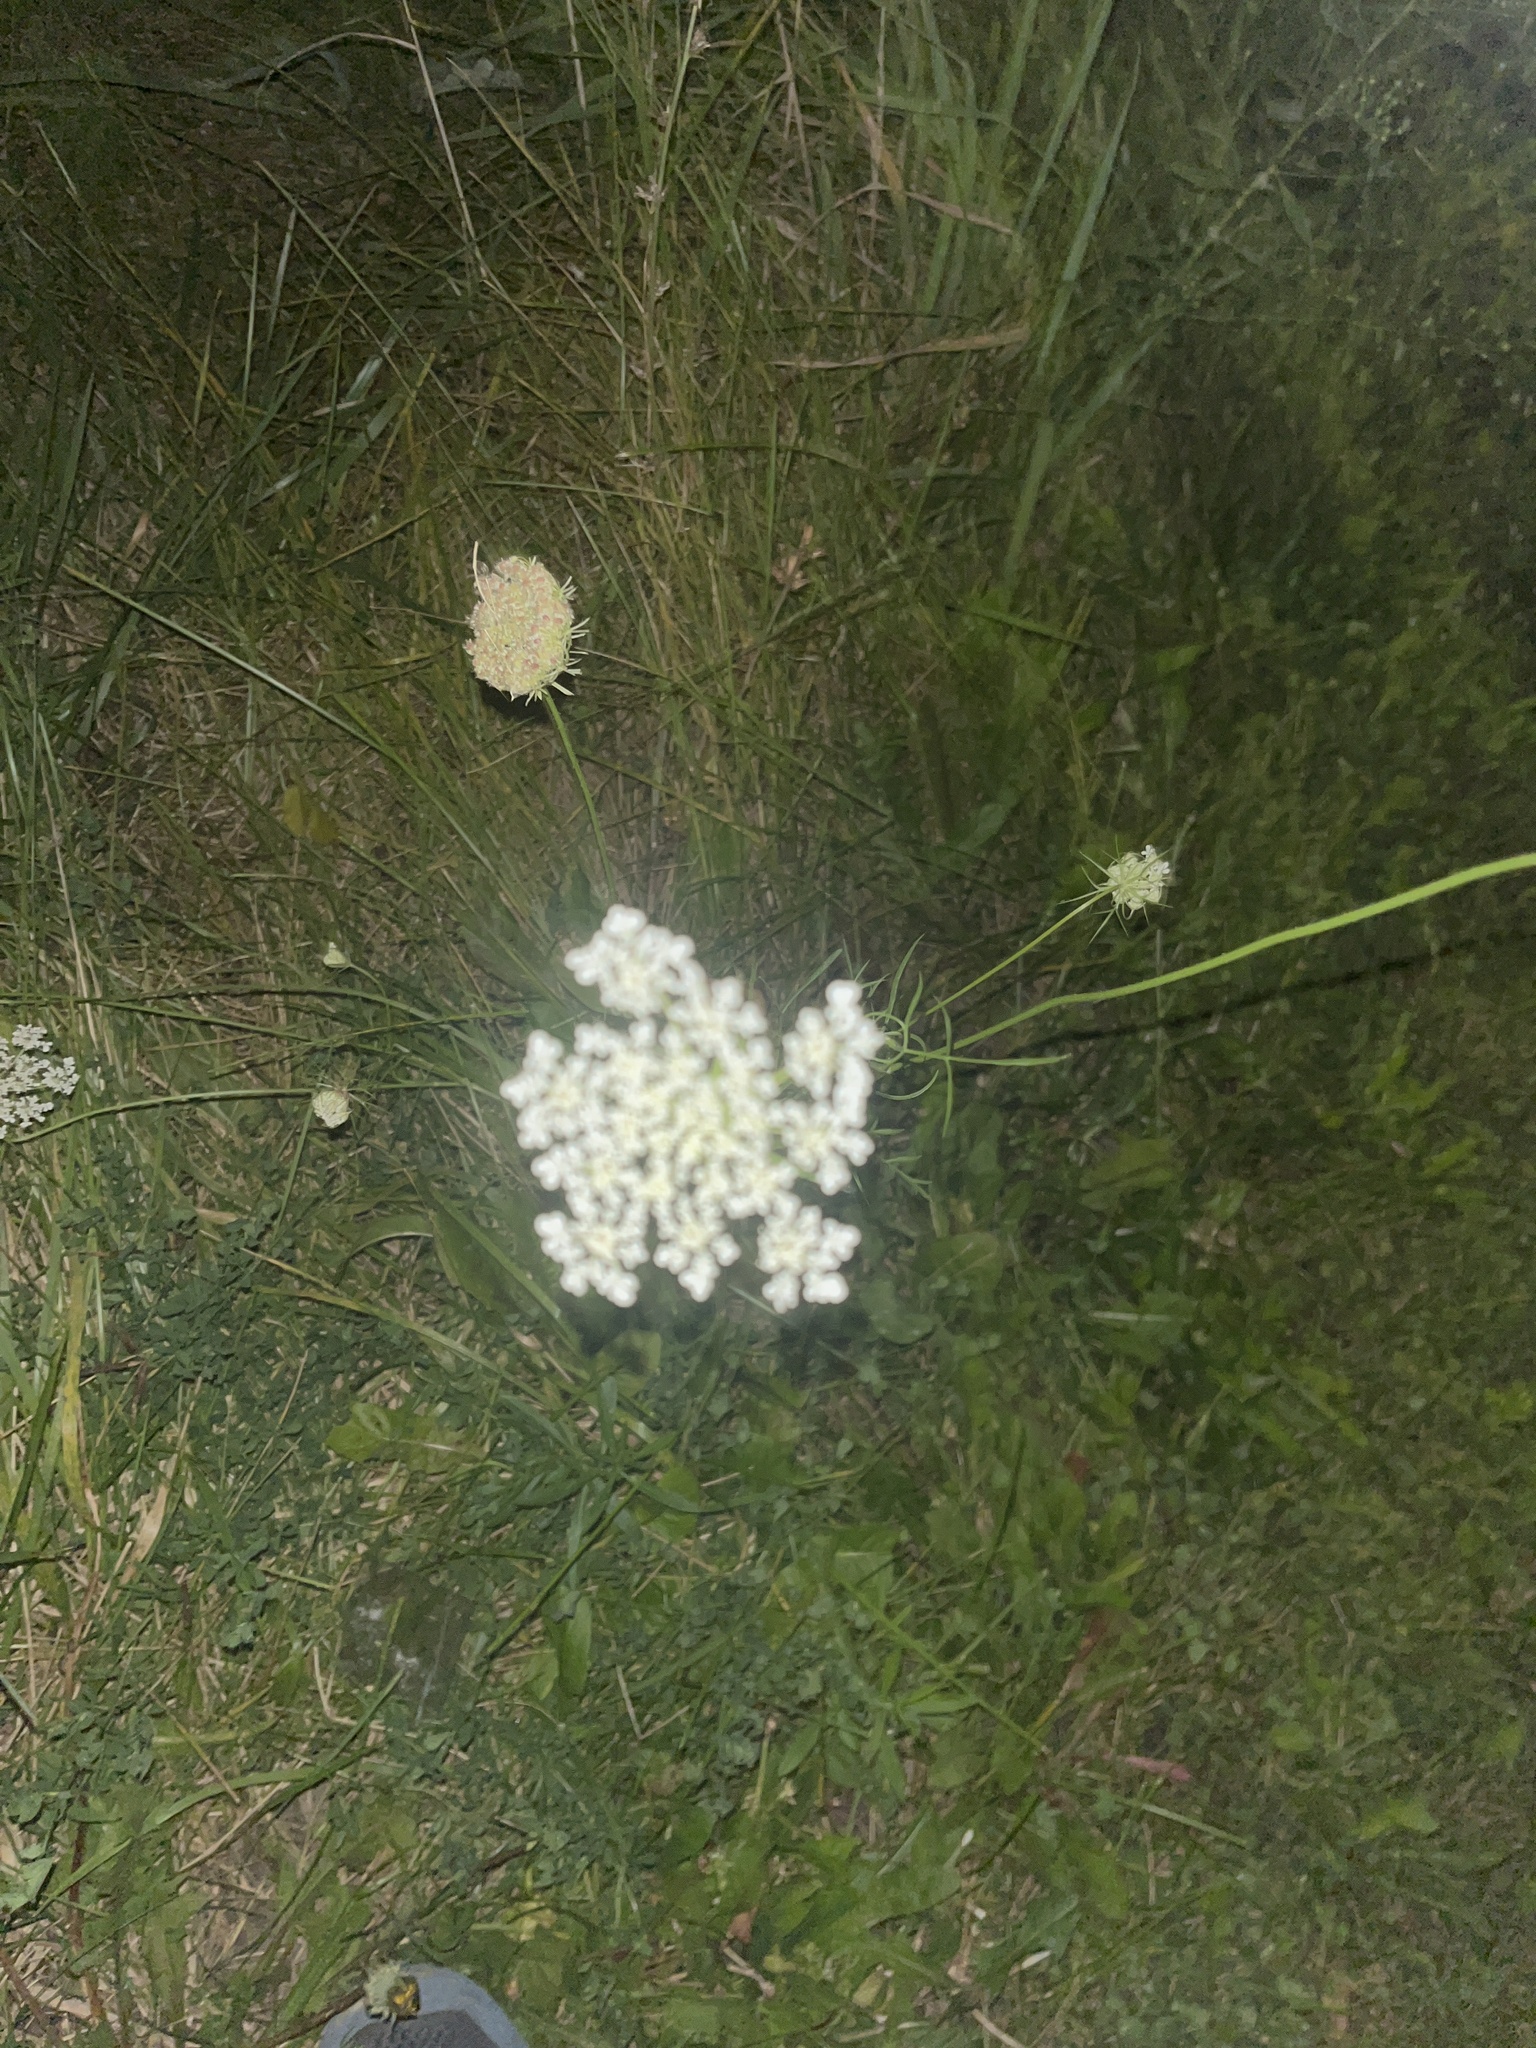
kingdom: Plantae
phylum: Tracheophyta
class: Magnoliopsida
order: Apiales
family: Apiaceae
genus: Daucus
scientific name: Daucus carota
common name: Wild carrot
